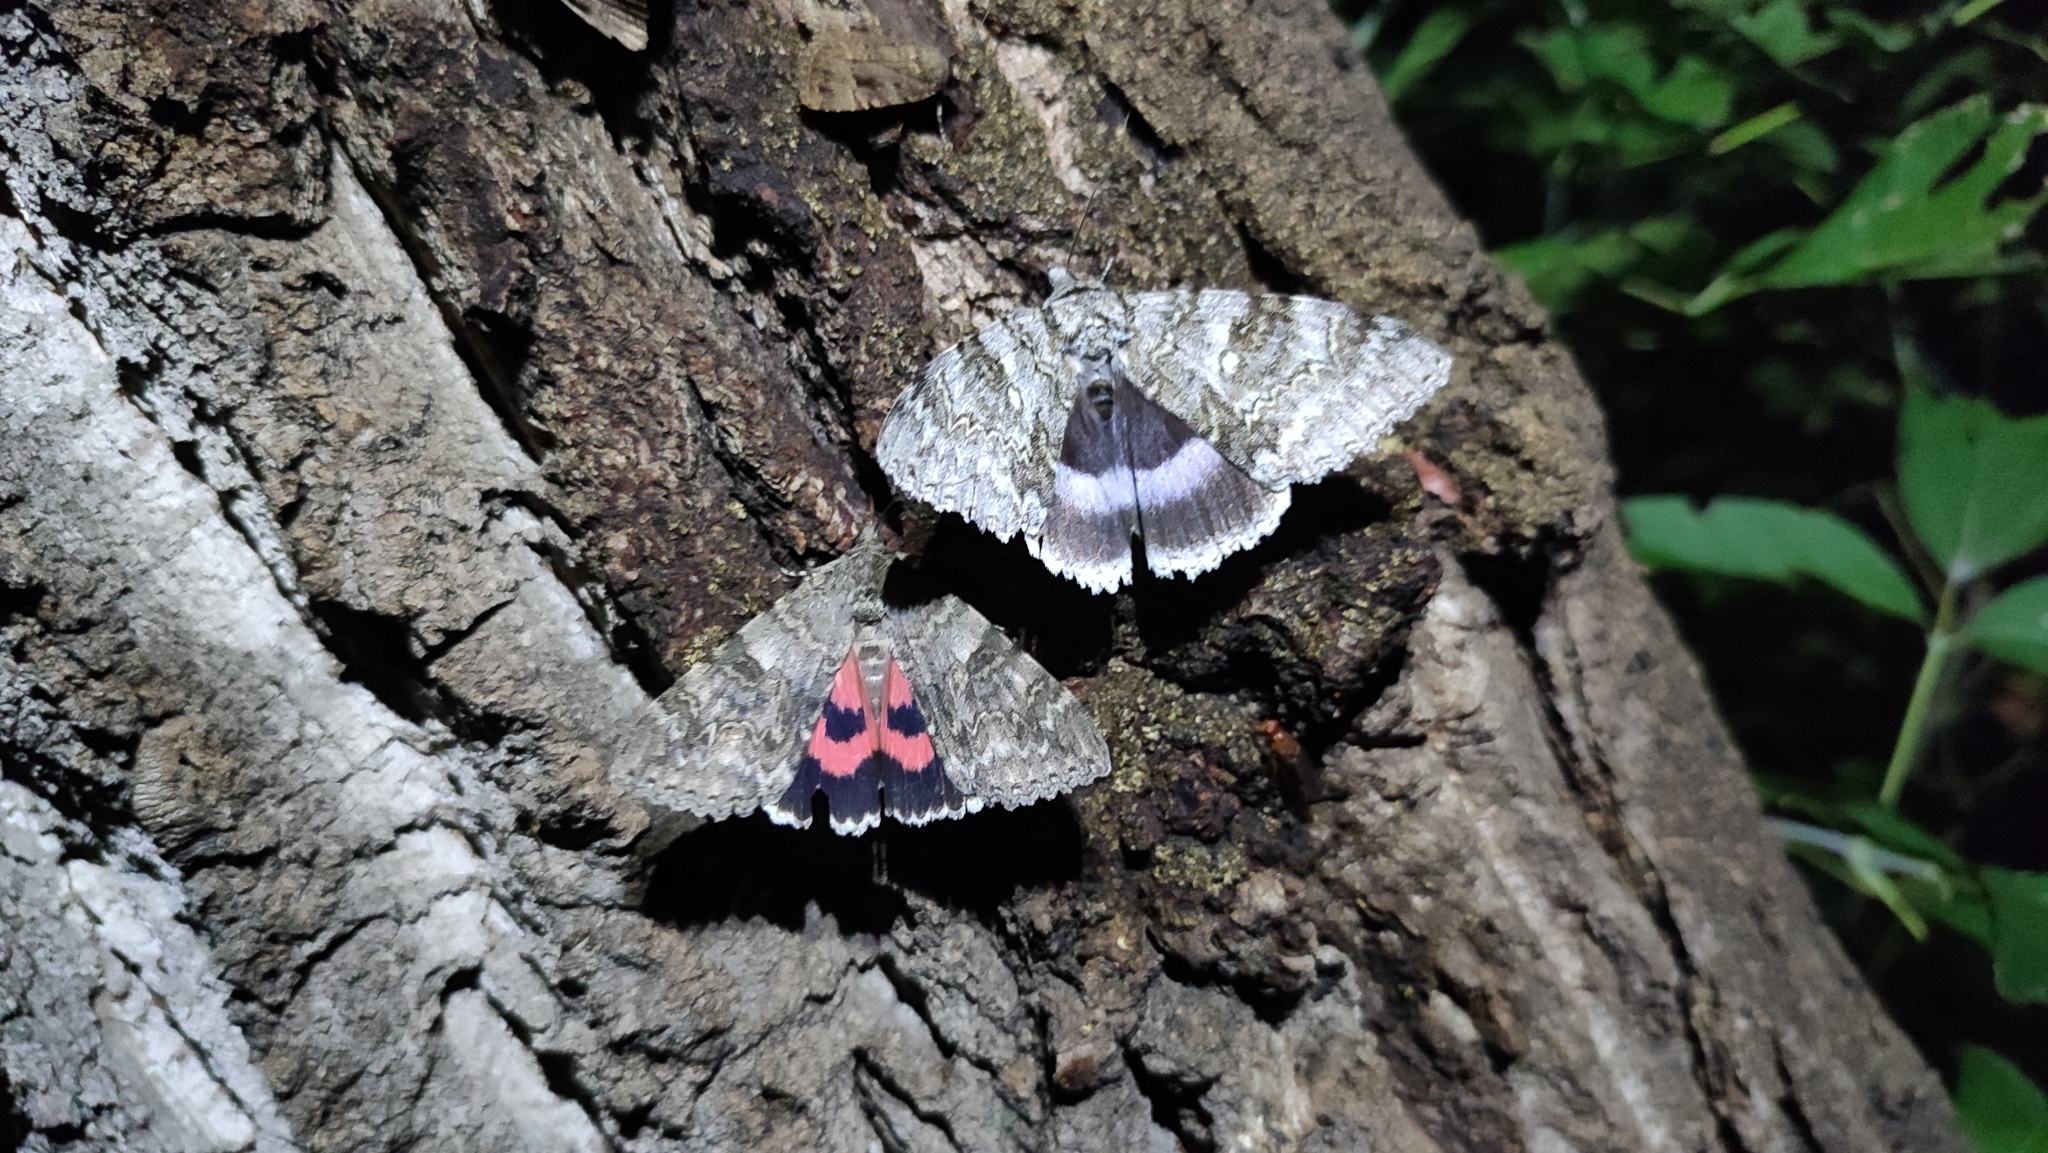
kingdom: Animalia
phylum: Arthropoda
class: Insecta
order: Lepidoptera
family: Erebidae
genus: Catocala
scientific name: Catocala fraxini
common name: Clifden nonpareil
